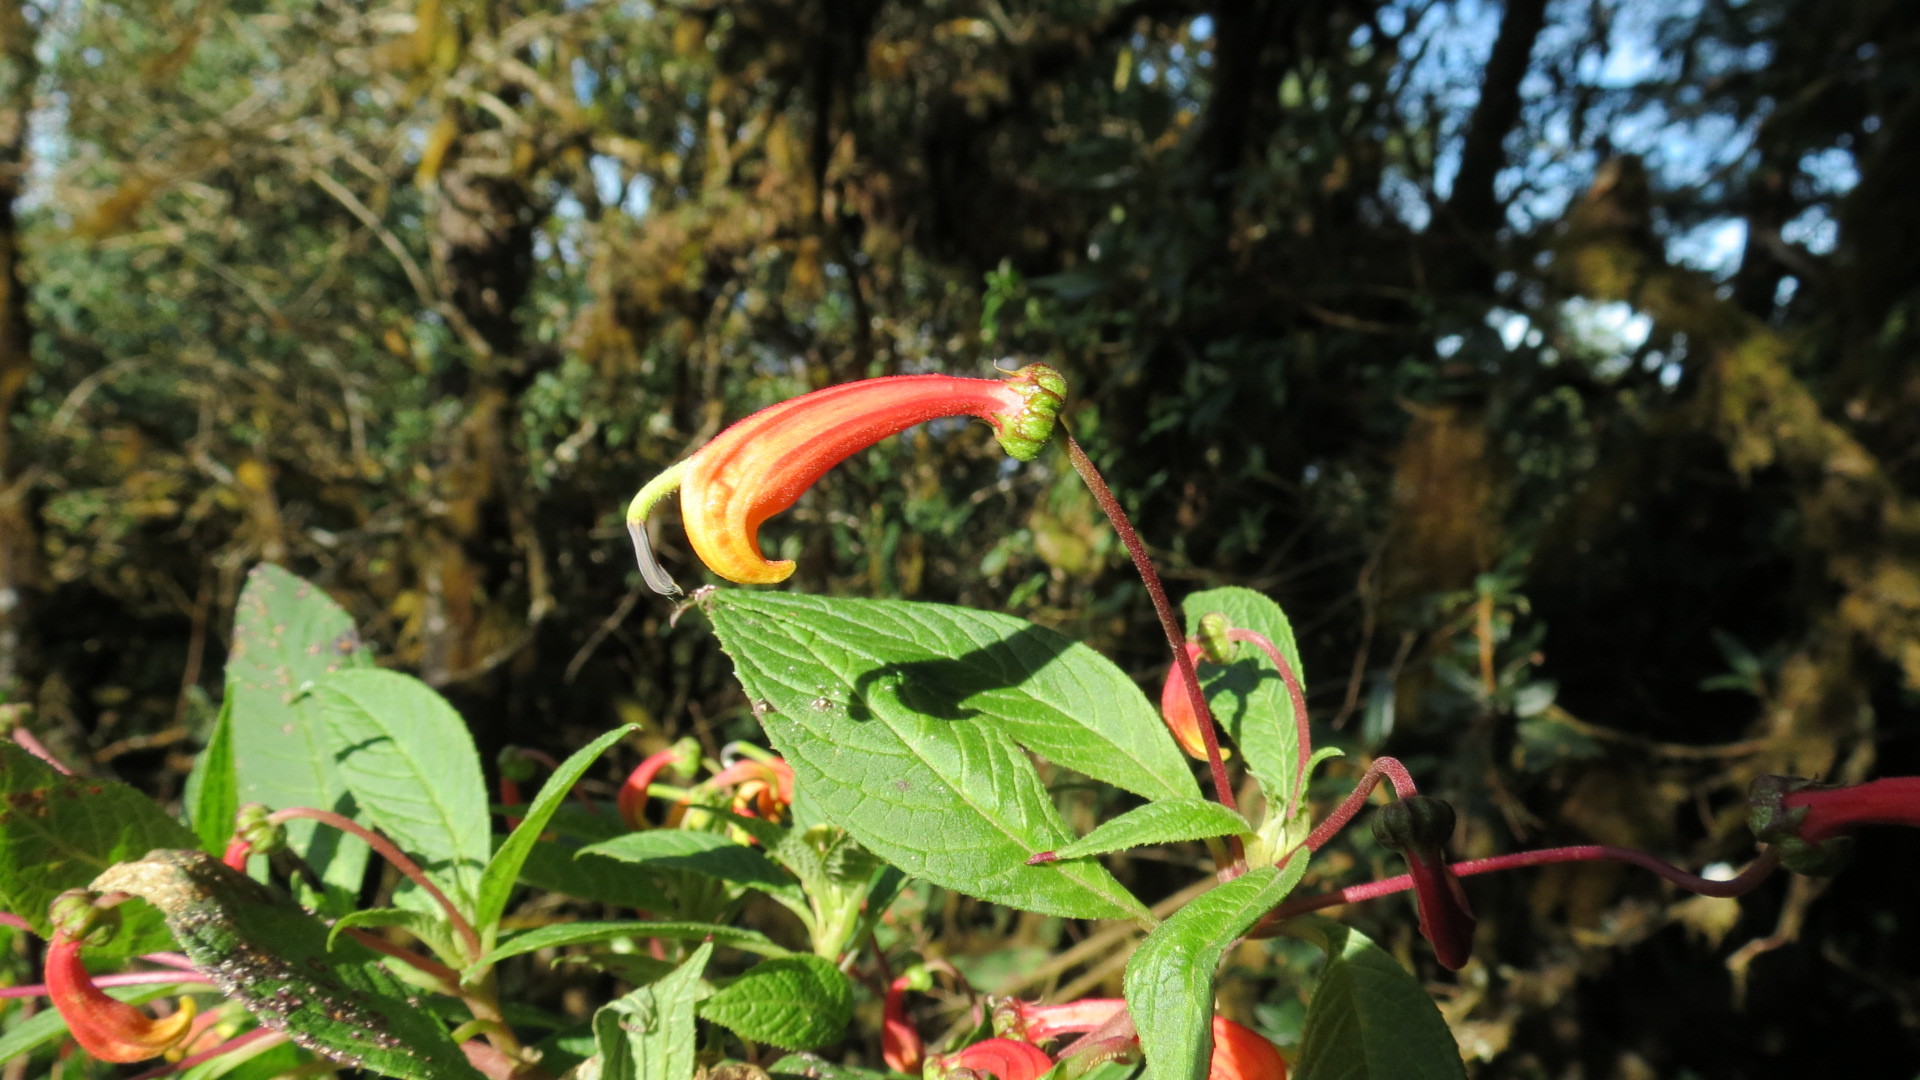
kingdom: Plantae
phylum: Tracheophyta
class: Magnoliopsida
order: Asterales
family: Campanulaceae
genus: Lobelia
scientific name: Lobelia laxiflora
